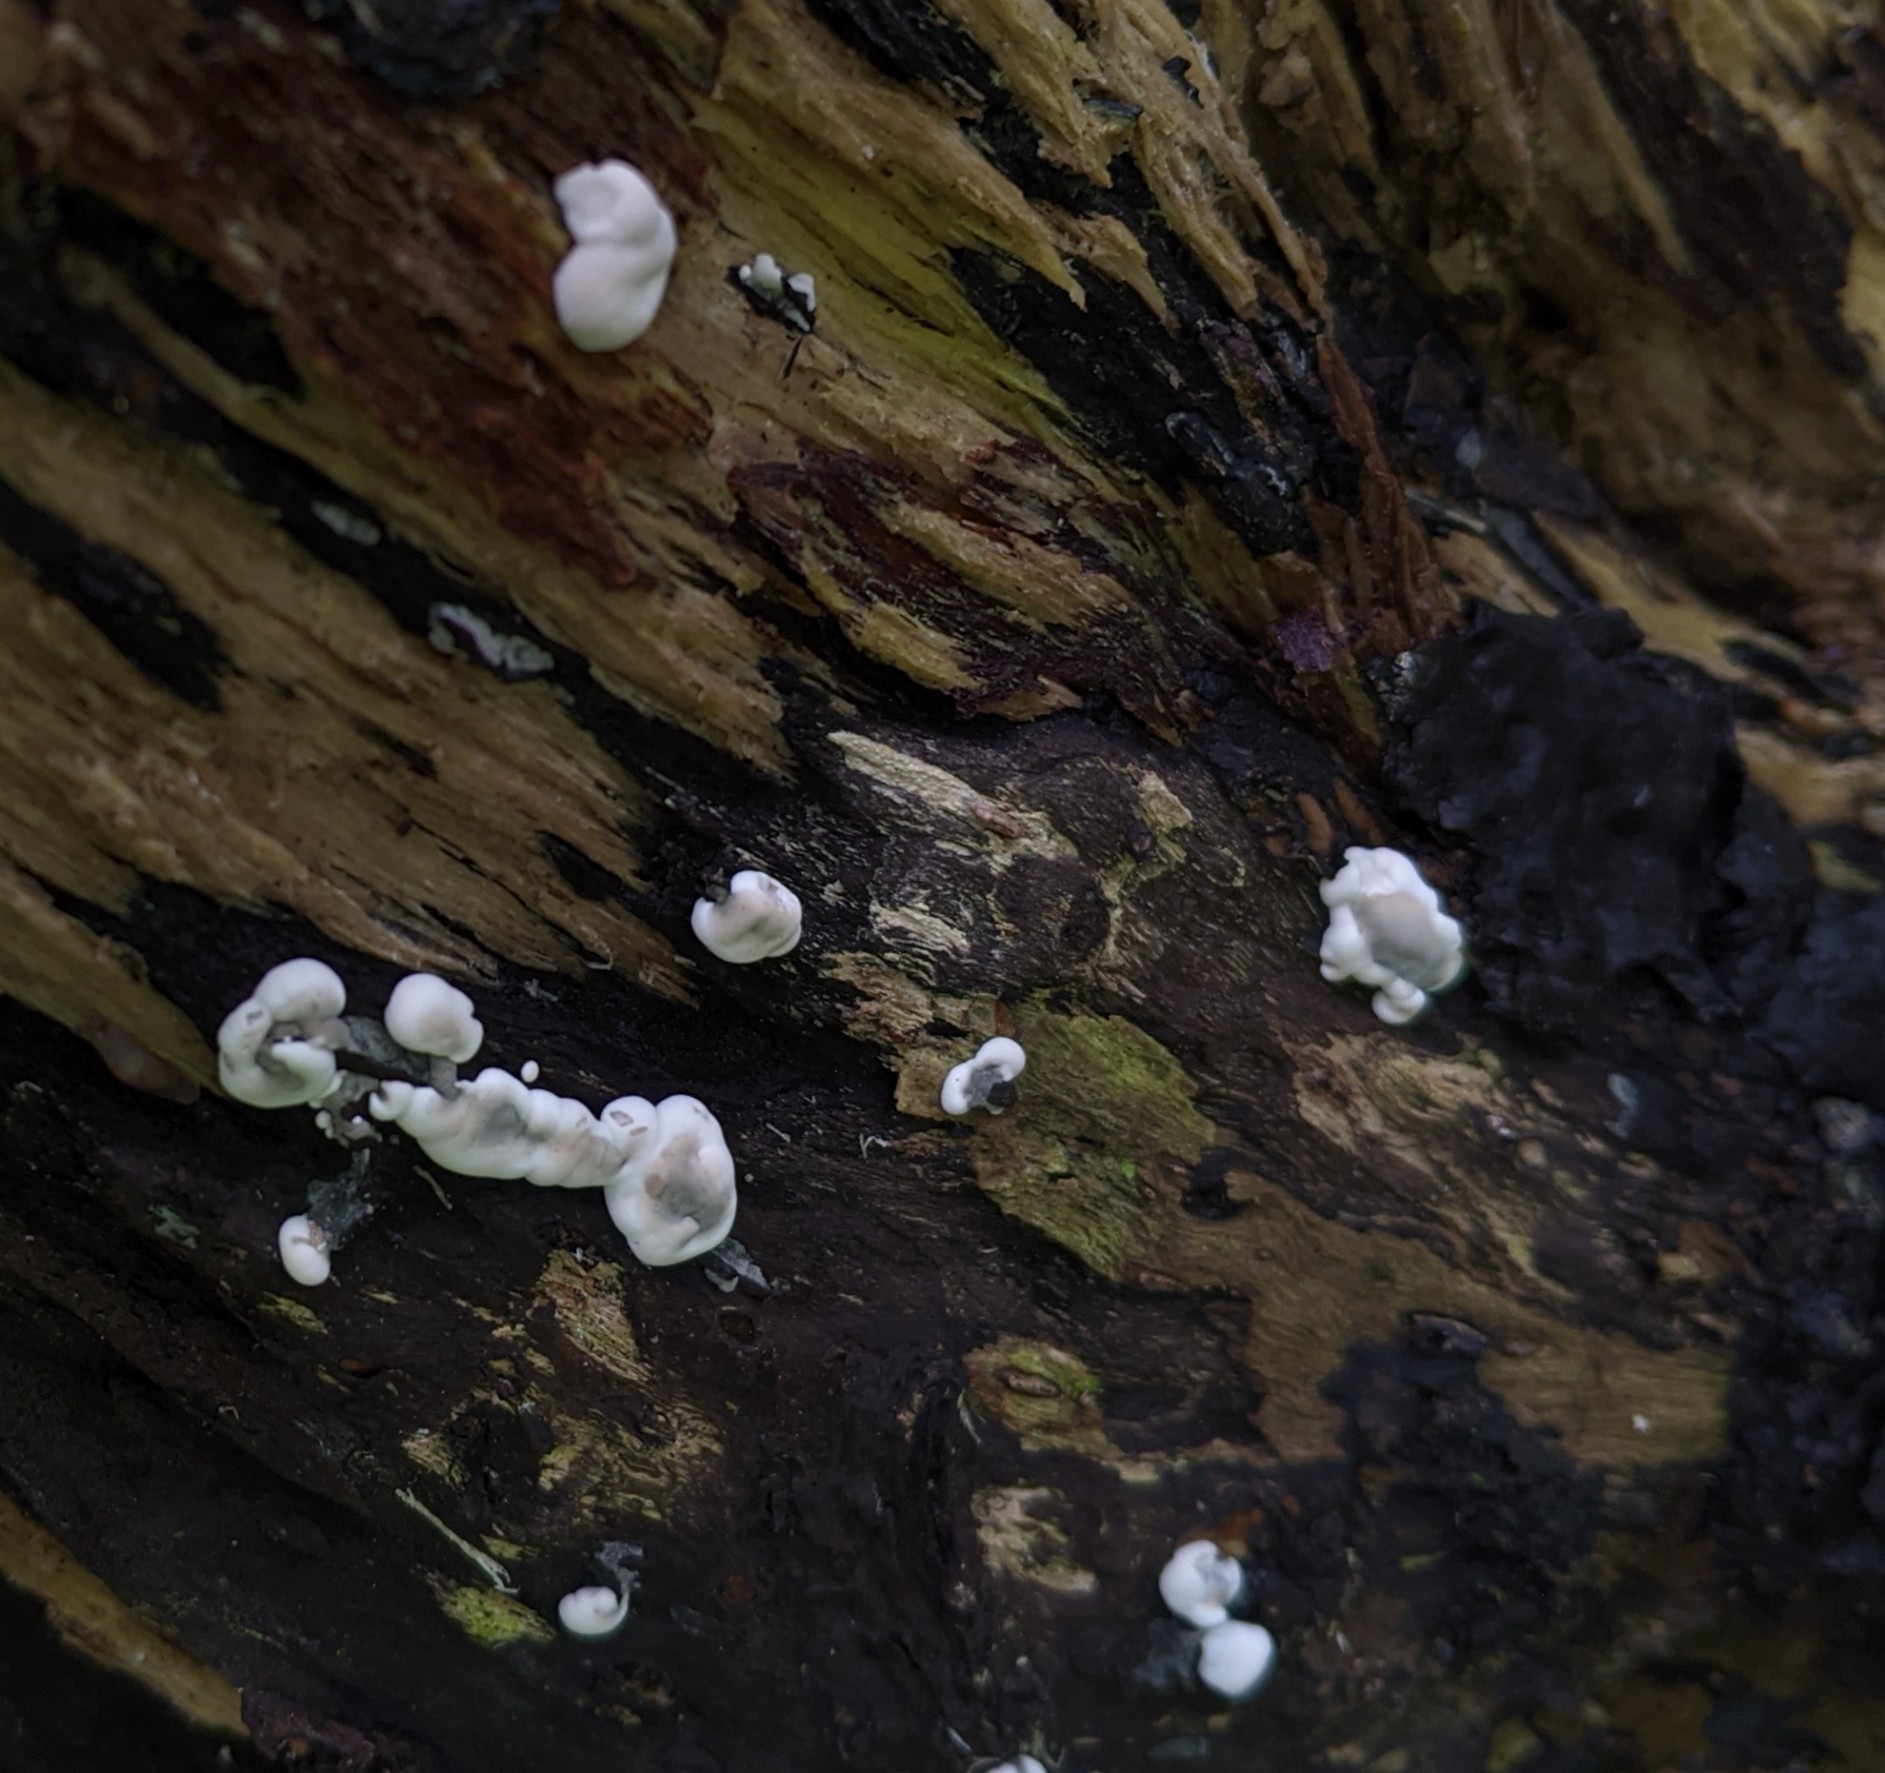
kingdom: Fungi
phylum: Ascomycota
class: Sordariomycetes
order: Xylariales
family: Xylariaceae
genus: Kretzschmaria
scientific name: Kretzschmaria deusta
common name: Brittle cinder
